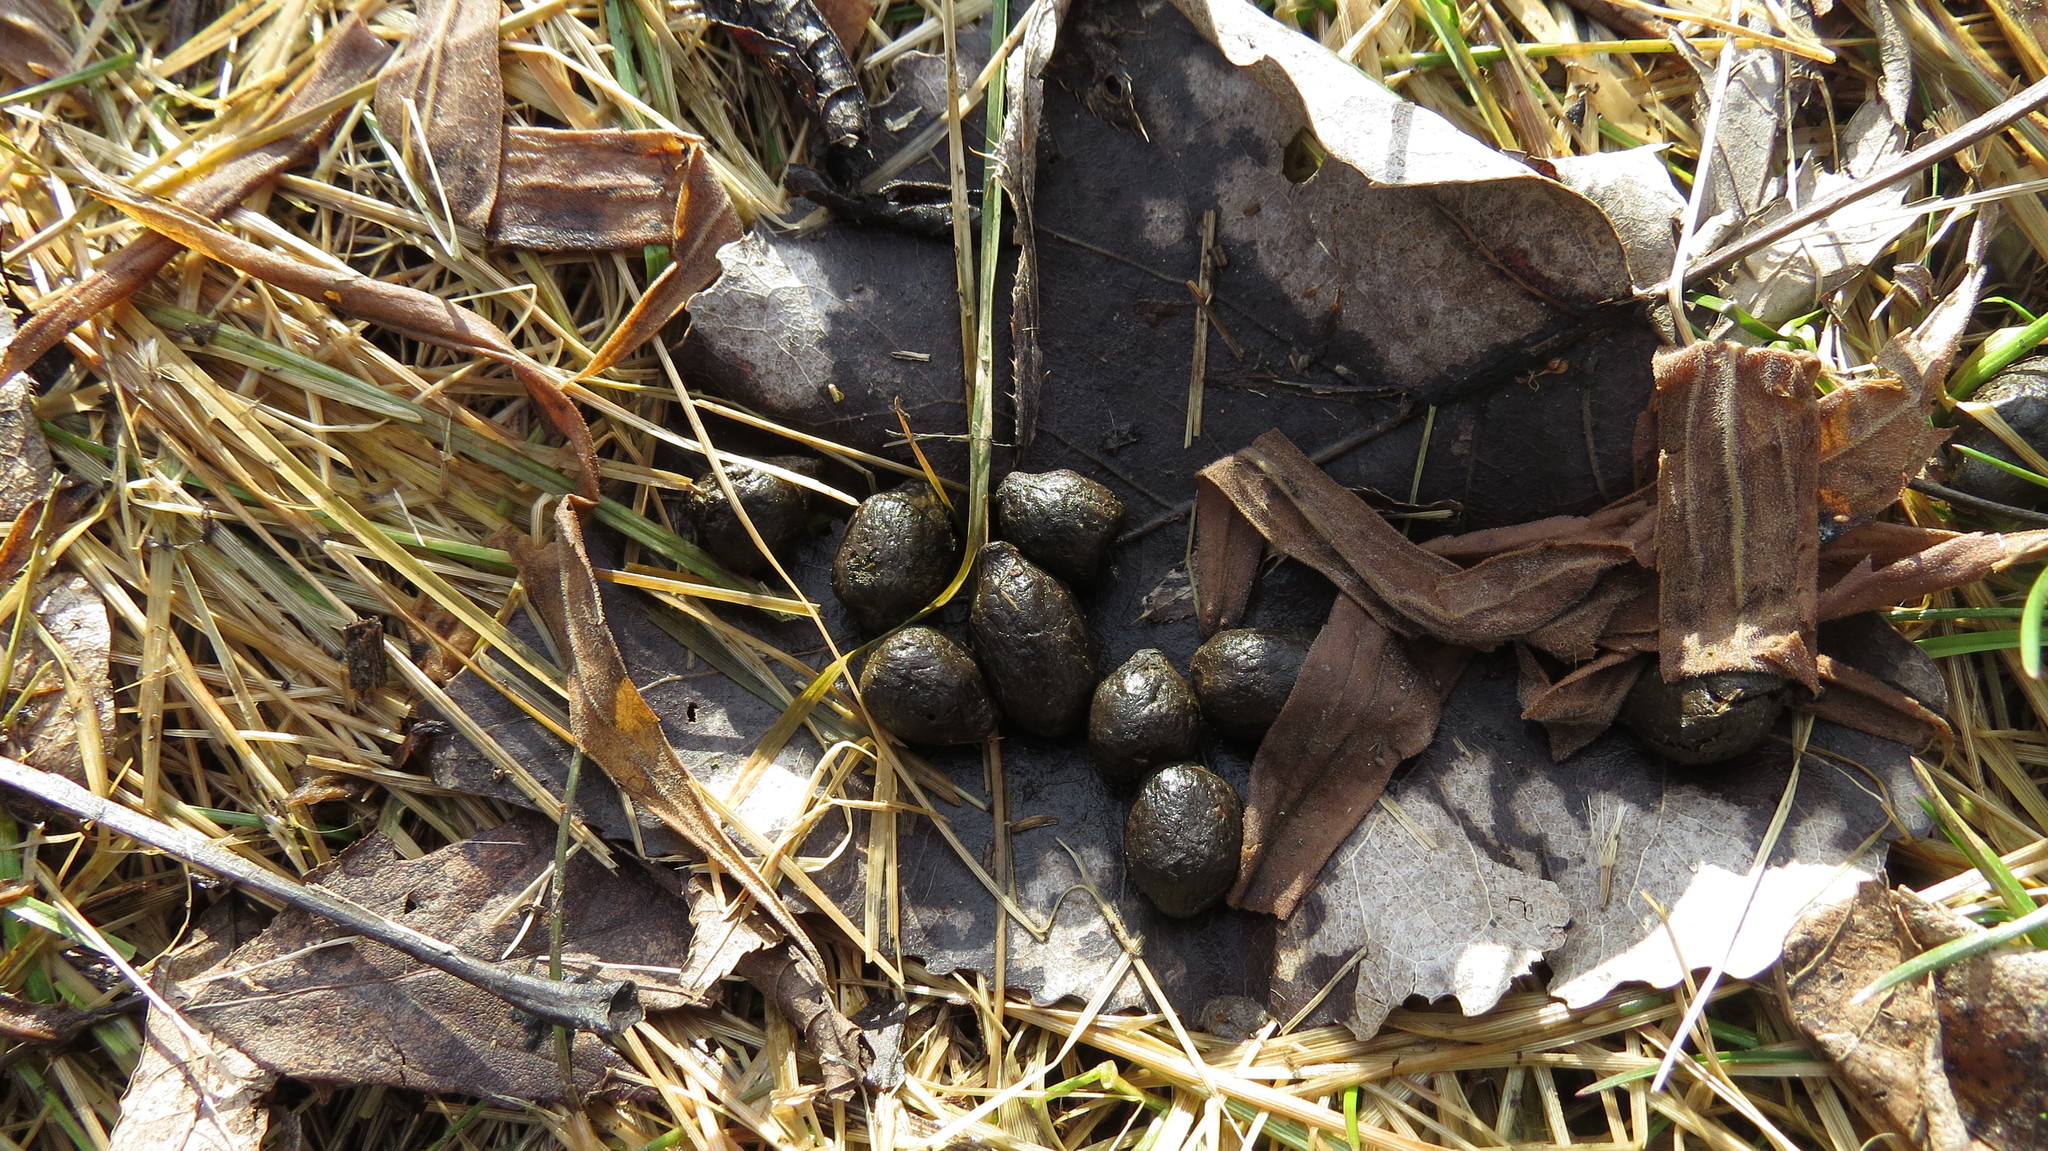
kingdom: Animalia
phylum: Chordata
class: Mammalia
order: Artiodactyla
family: Cervidae
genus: Odocoileus
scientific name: Odocoileus virginianus
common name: White-tailed deer
